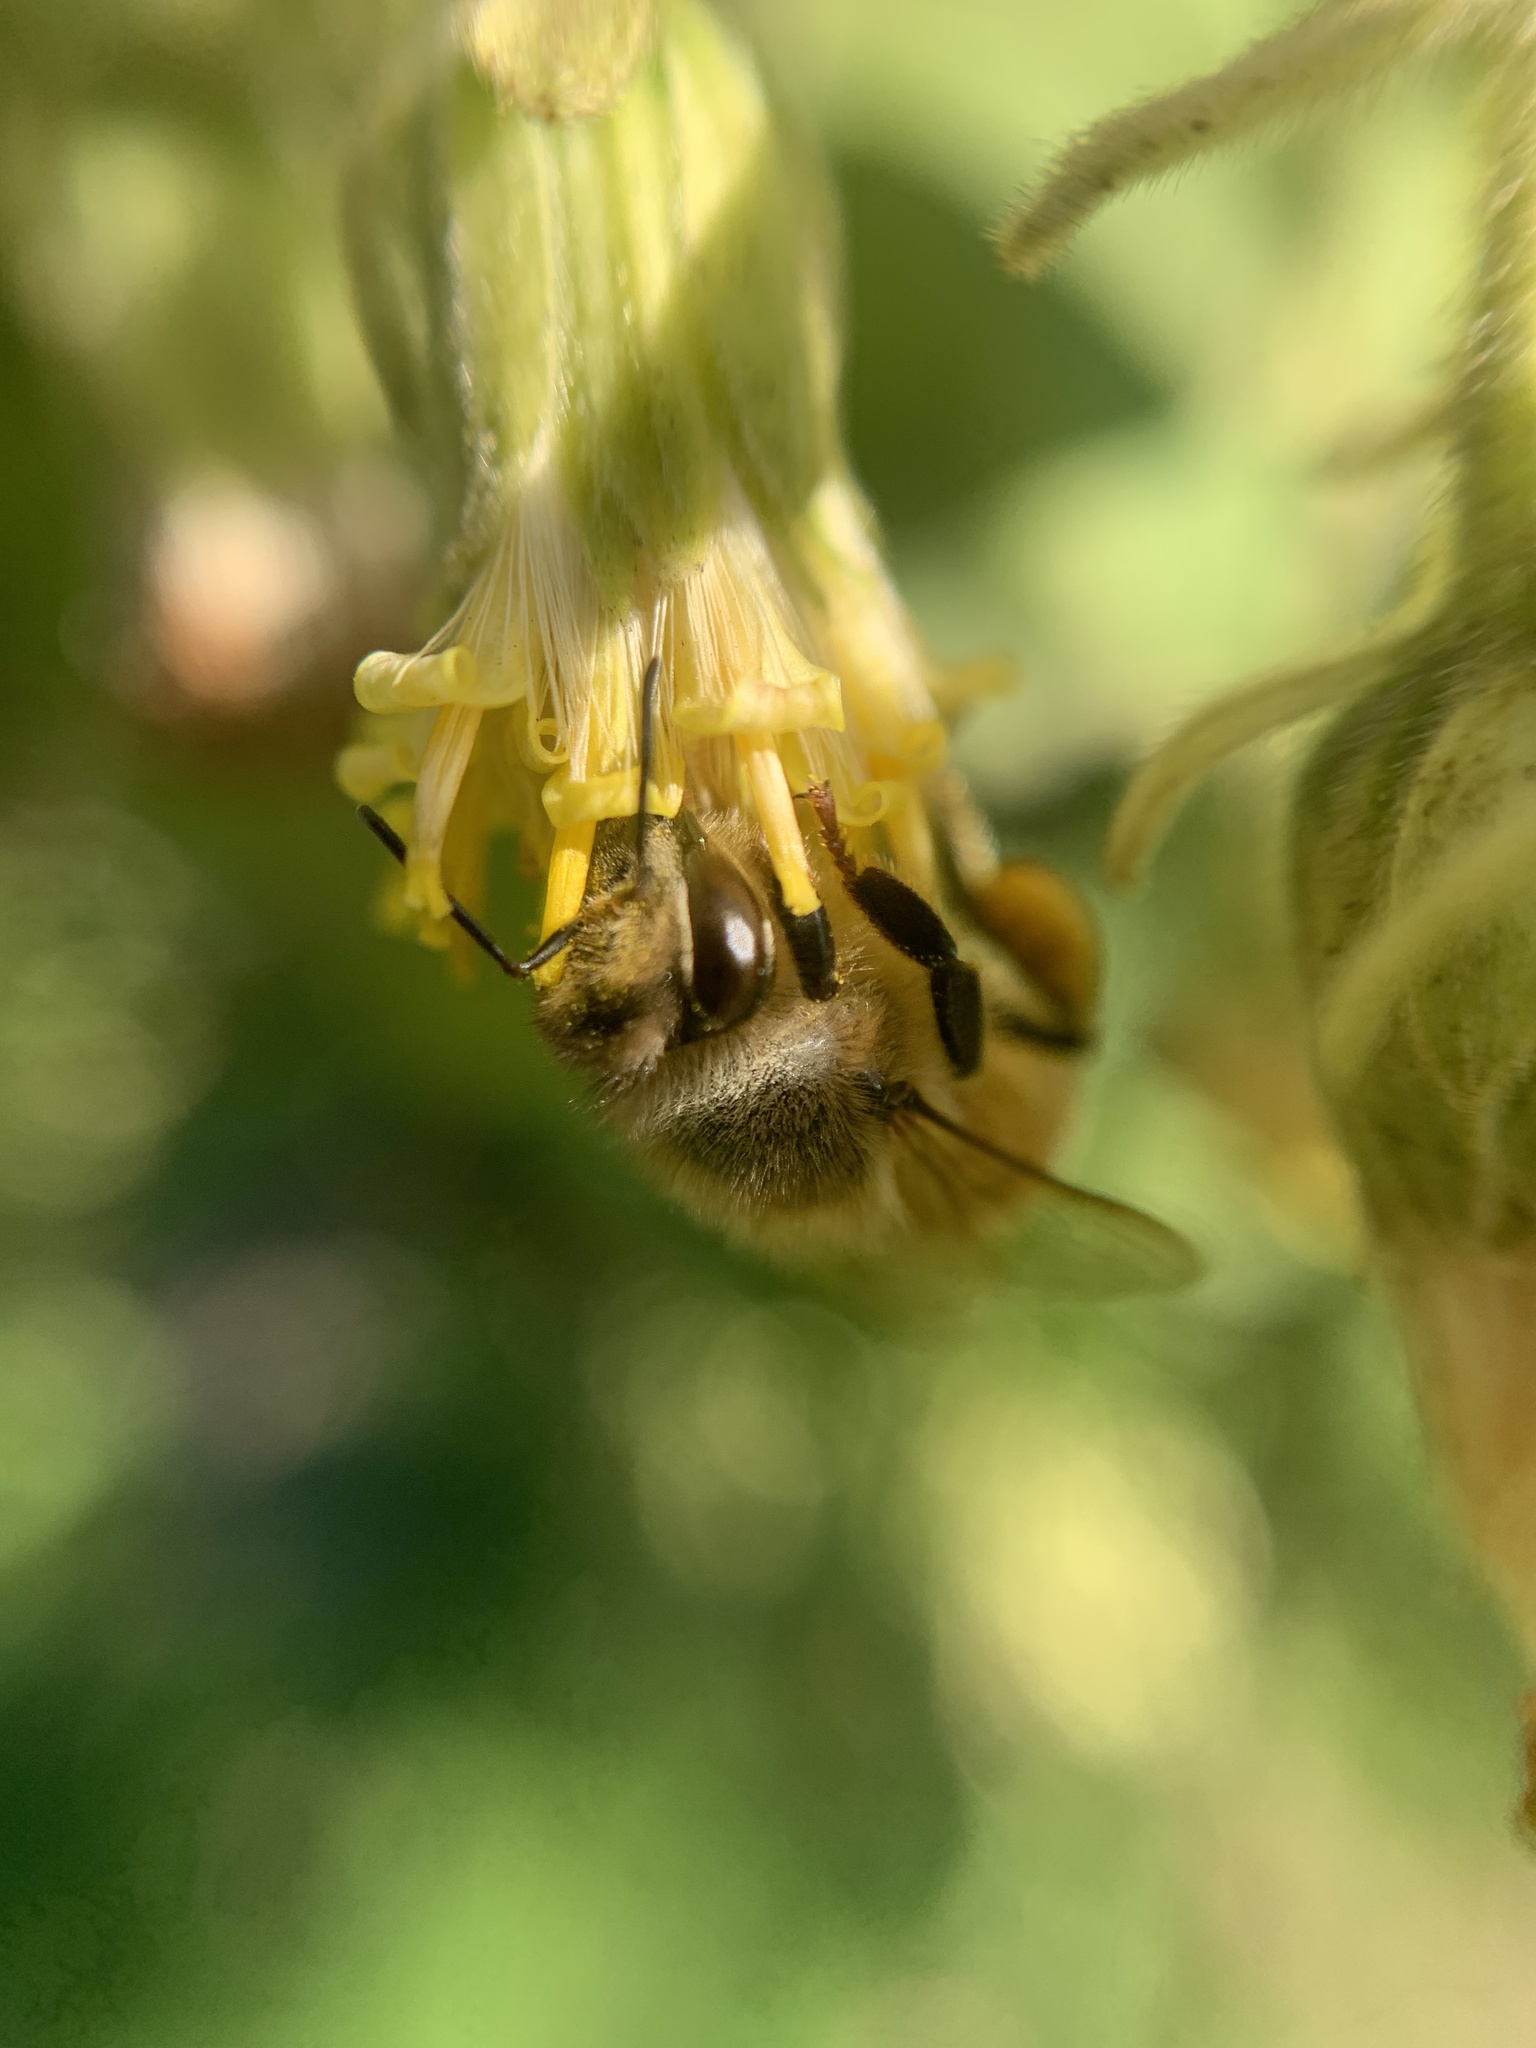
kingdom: Animalia
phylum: Arthropoda
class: Insecta
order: Hymenoptera
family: Apidae
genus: Apis
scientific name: Apis mellifera
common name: Honey bee
